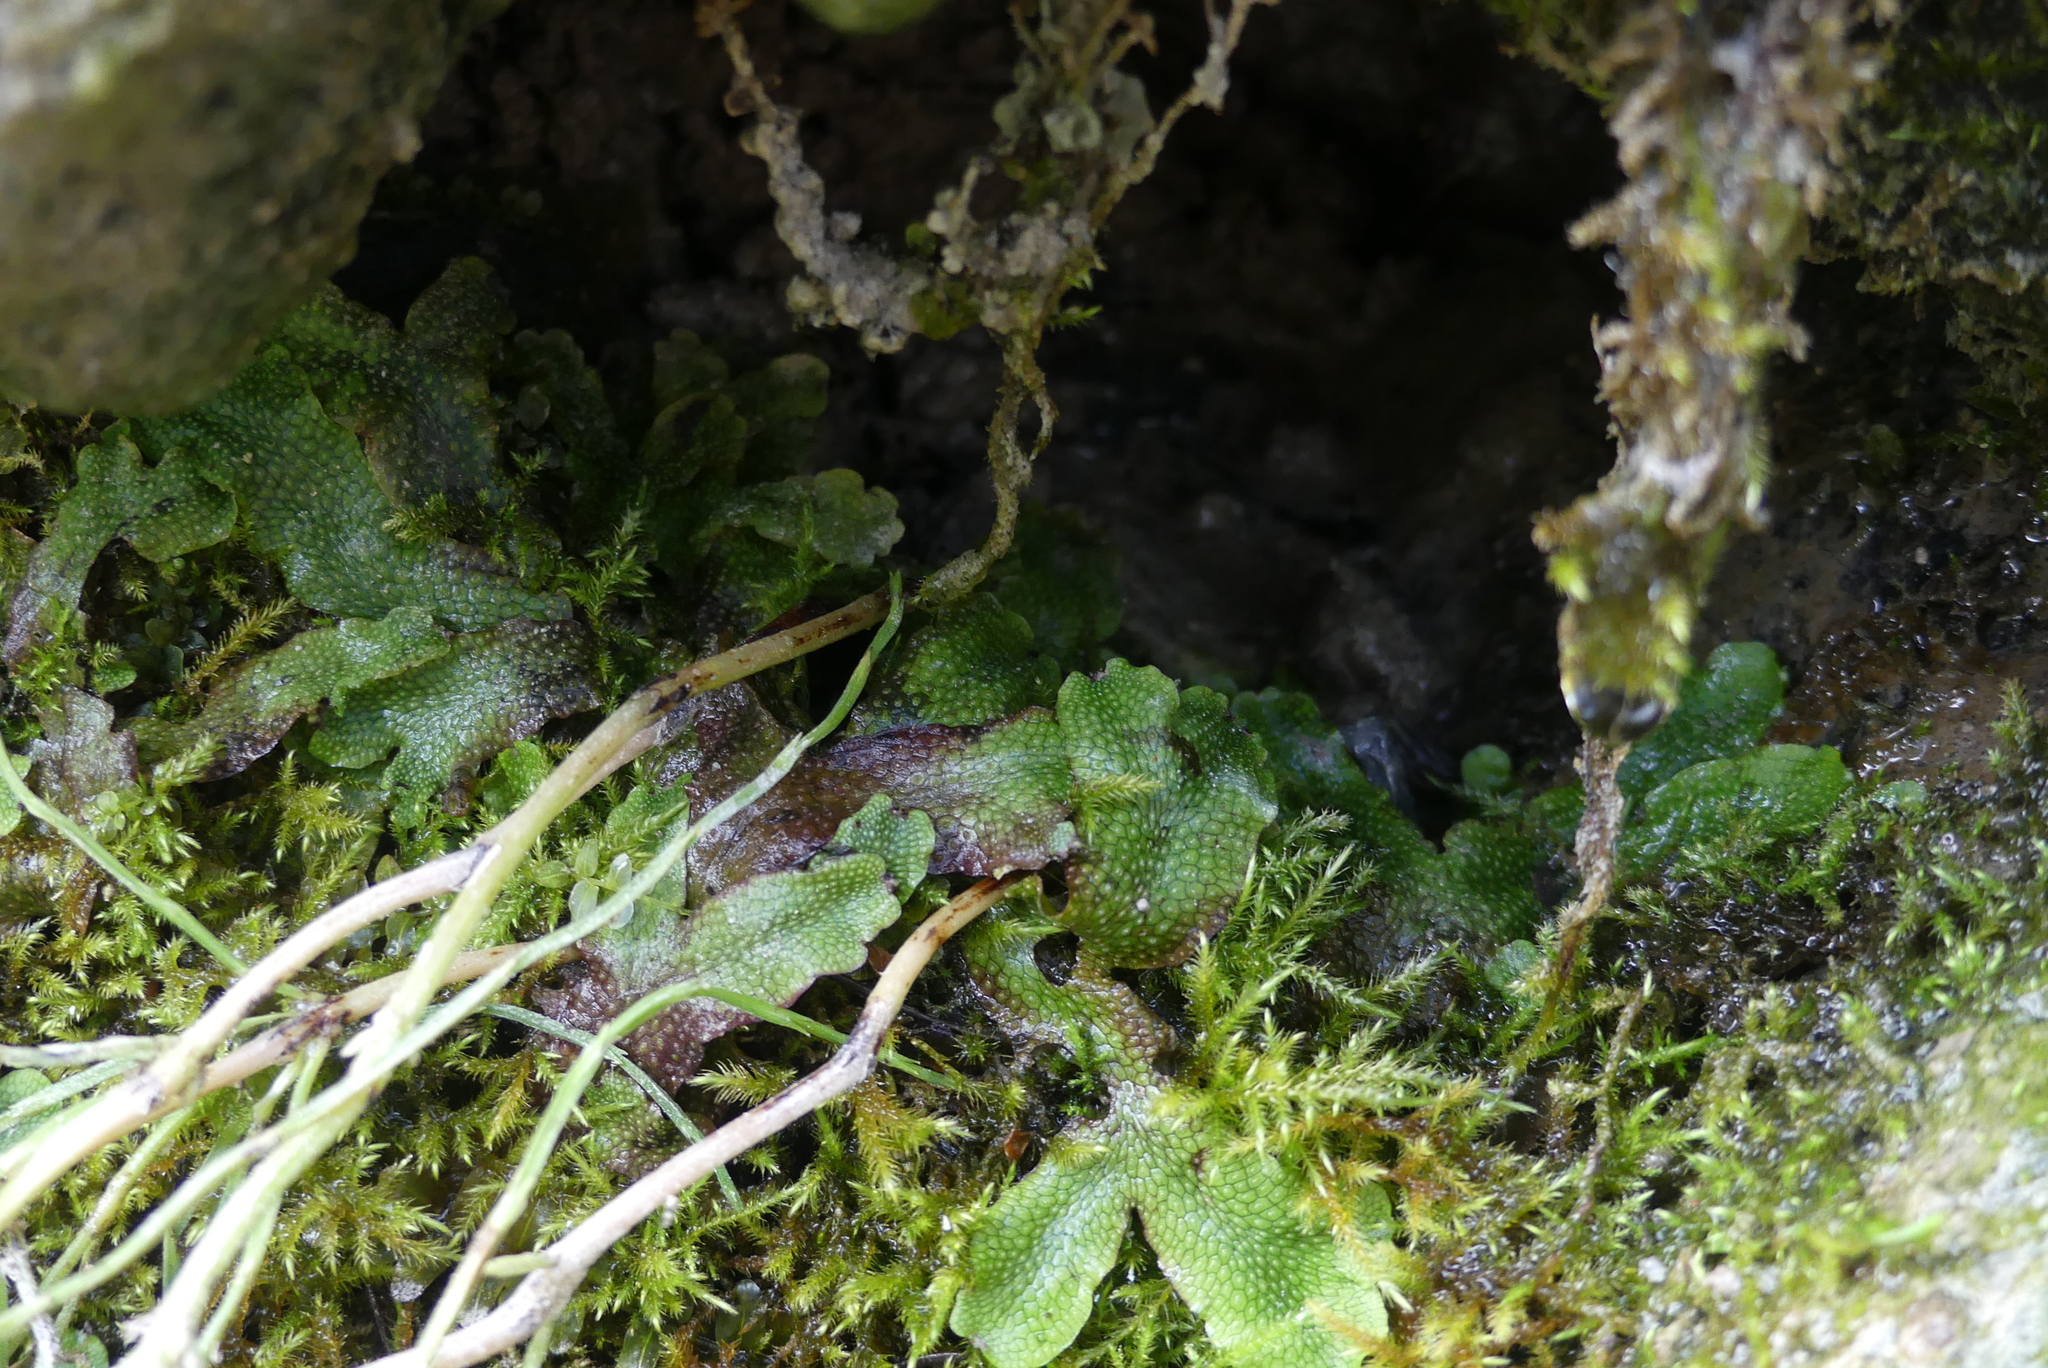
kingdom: Plantae
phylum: Marchantiophyta
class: Marchantiopsida
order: Marchantiales
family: Conocephalaceae
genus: Conocephalum
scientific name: Conocephalum salebrosum
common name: Cat-tongue liverwort
